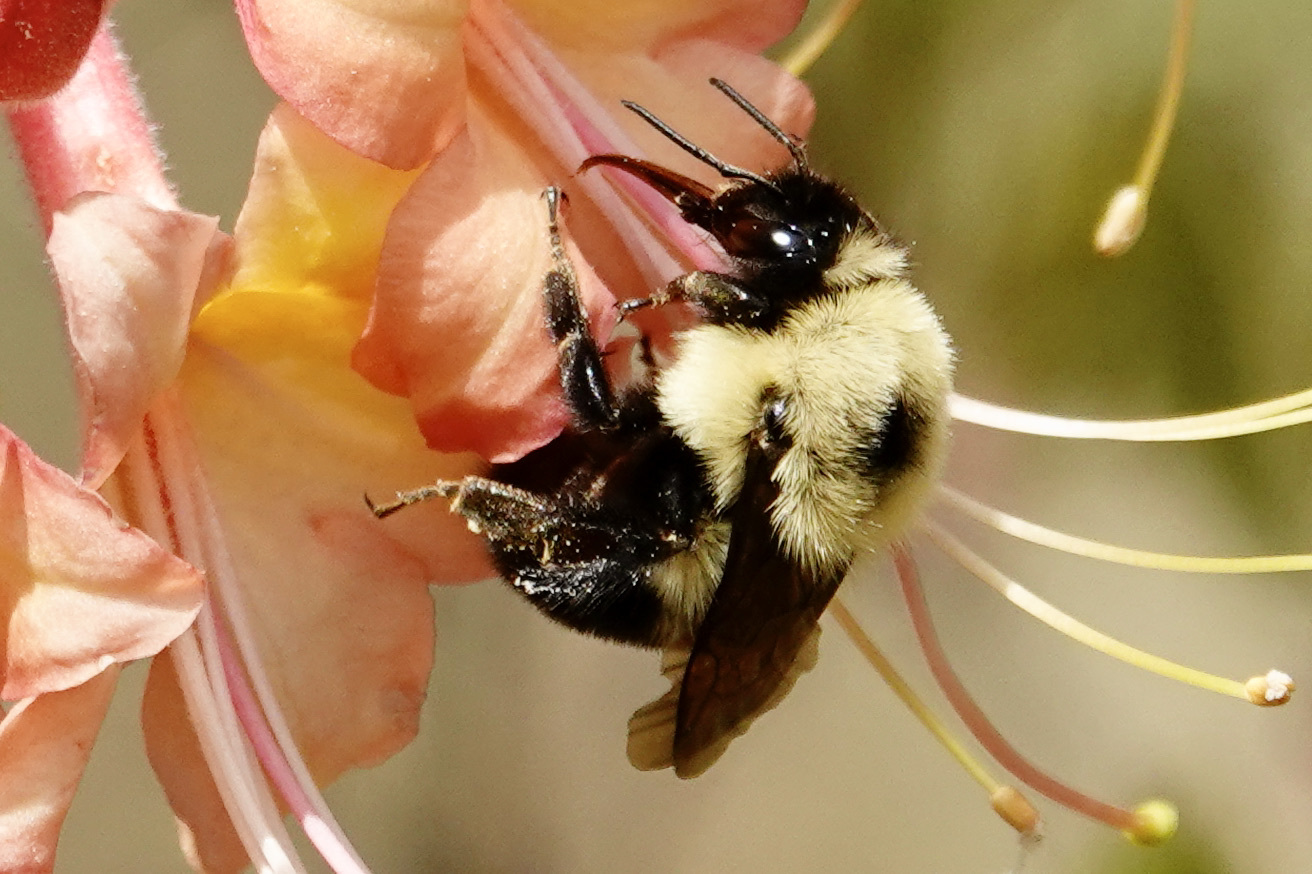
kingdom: Animalia
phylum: Arthropoda
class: Insecta
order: Hymenoptera
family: Apidae
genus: Bombus
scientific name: Bombus bimaculatus
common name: Two-spotted bumble bee
